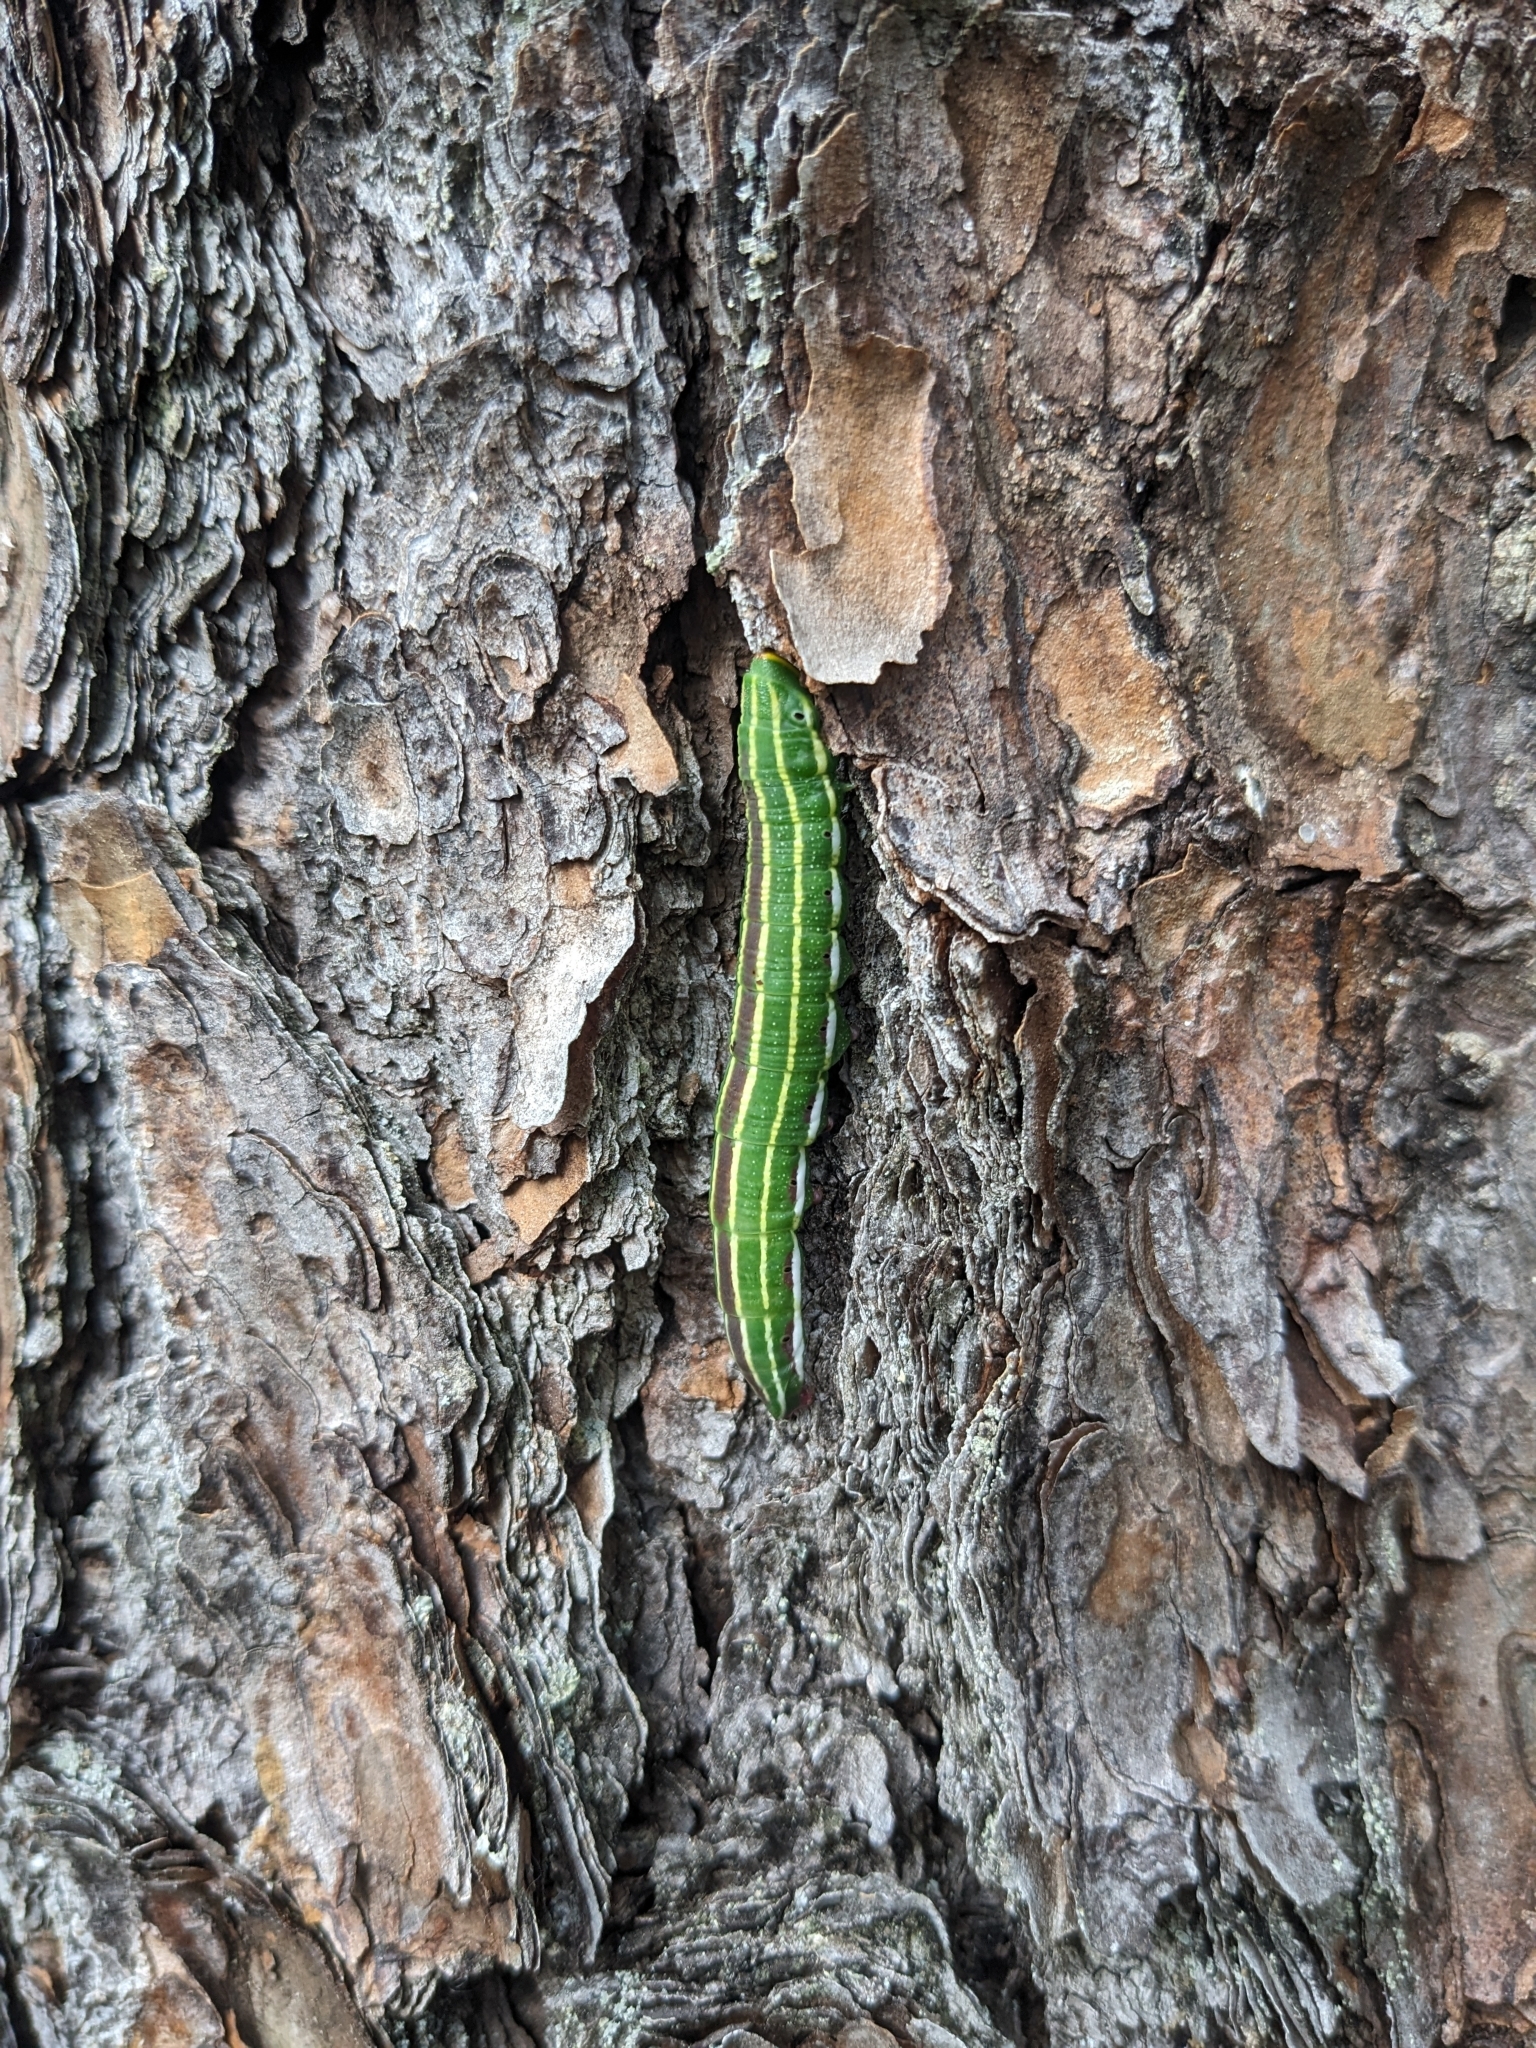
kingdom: Animalia
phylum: Arthropoda
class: Insecta
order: Lepidoptera
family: Sphingidae
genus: Lapara
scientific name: Lapara bombycoides
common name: Northern pine sphinx
